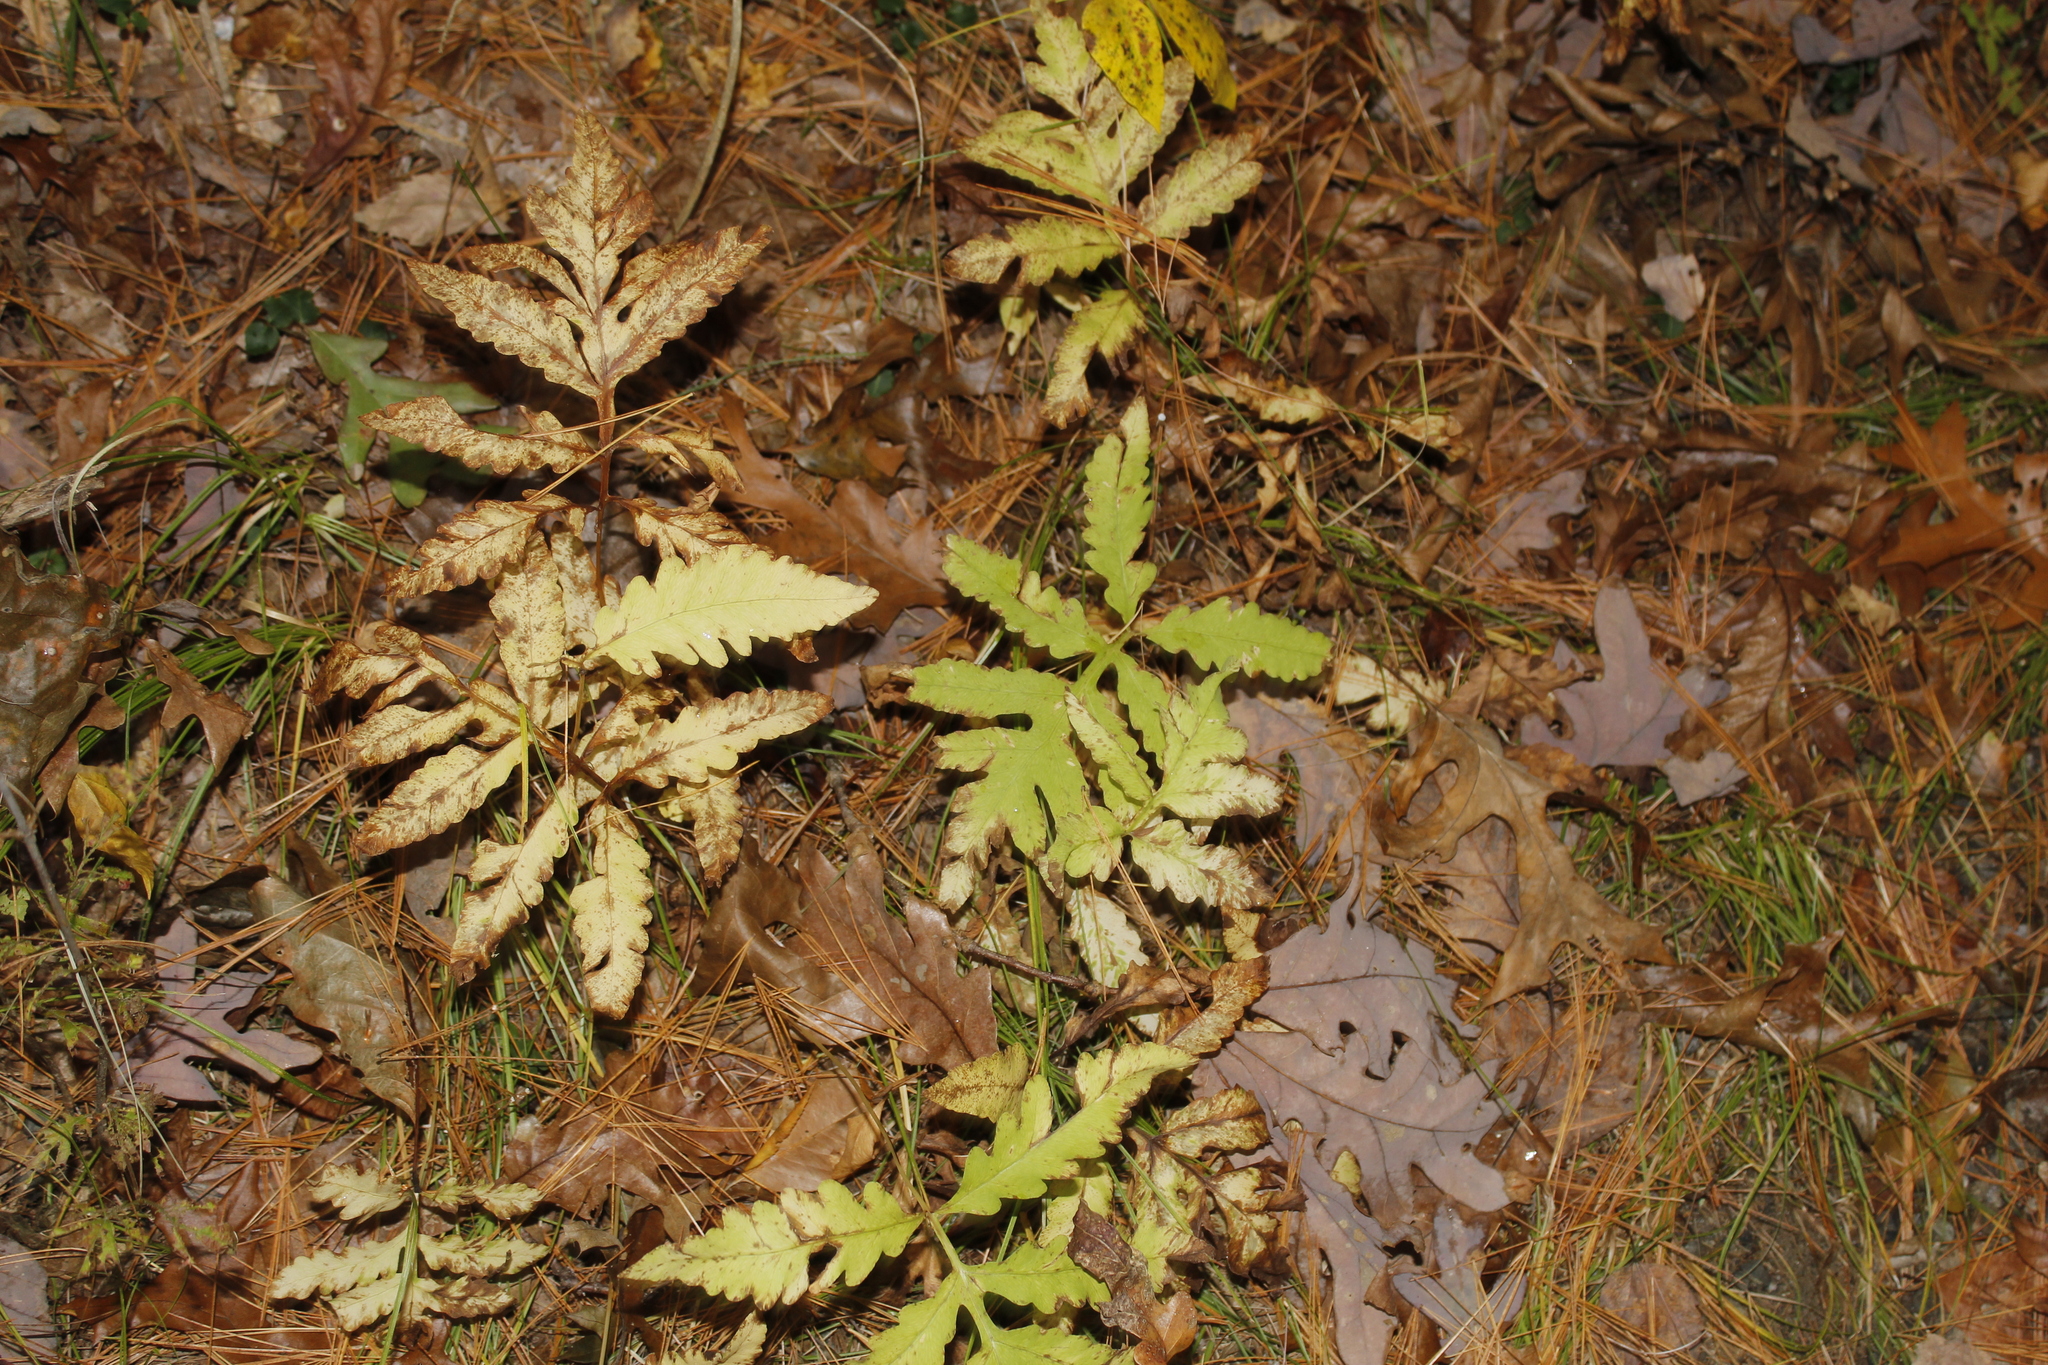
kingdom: Plantae
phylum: Tracheophyta
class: Polypodiopsida
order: Polypodiales
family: Onocleaceae
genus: Onoclea
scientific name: Onoclea sensibilis
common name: Sensitive fern
